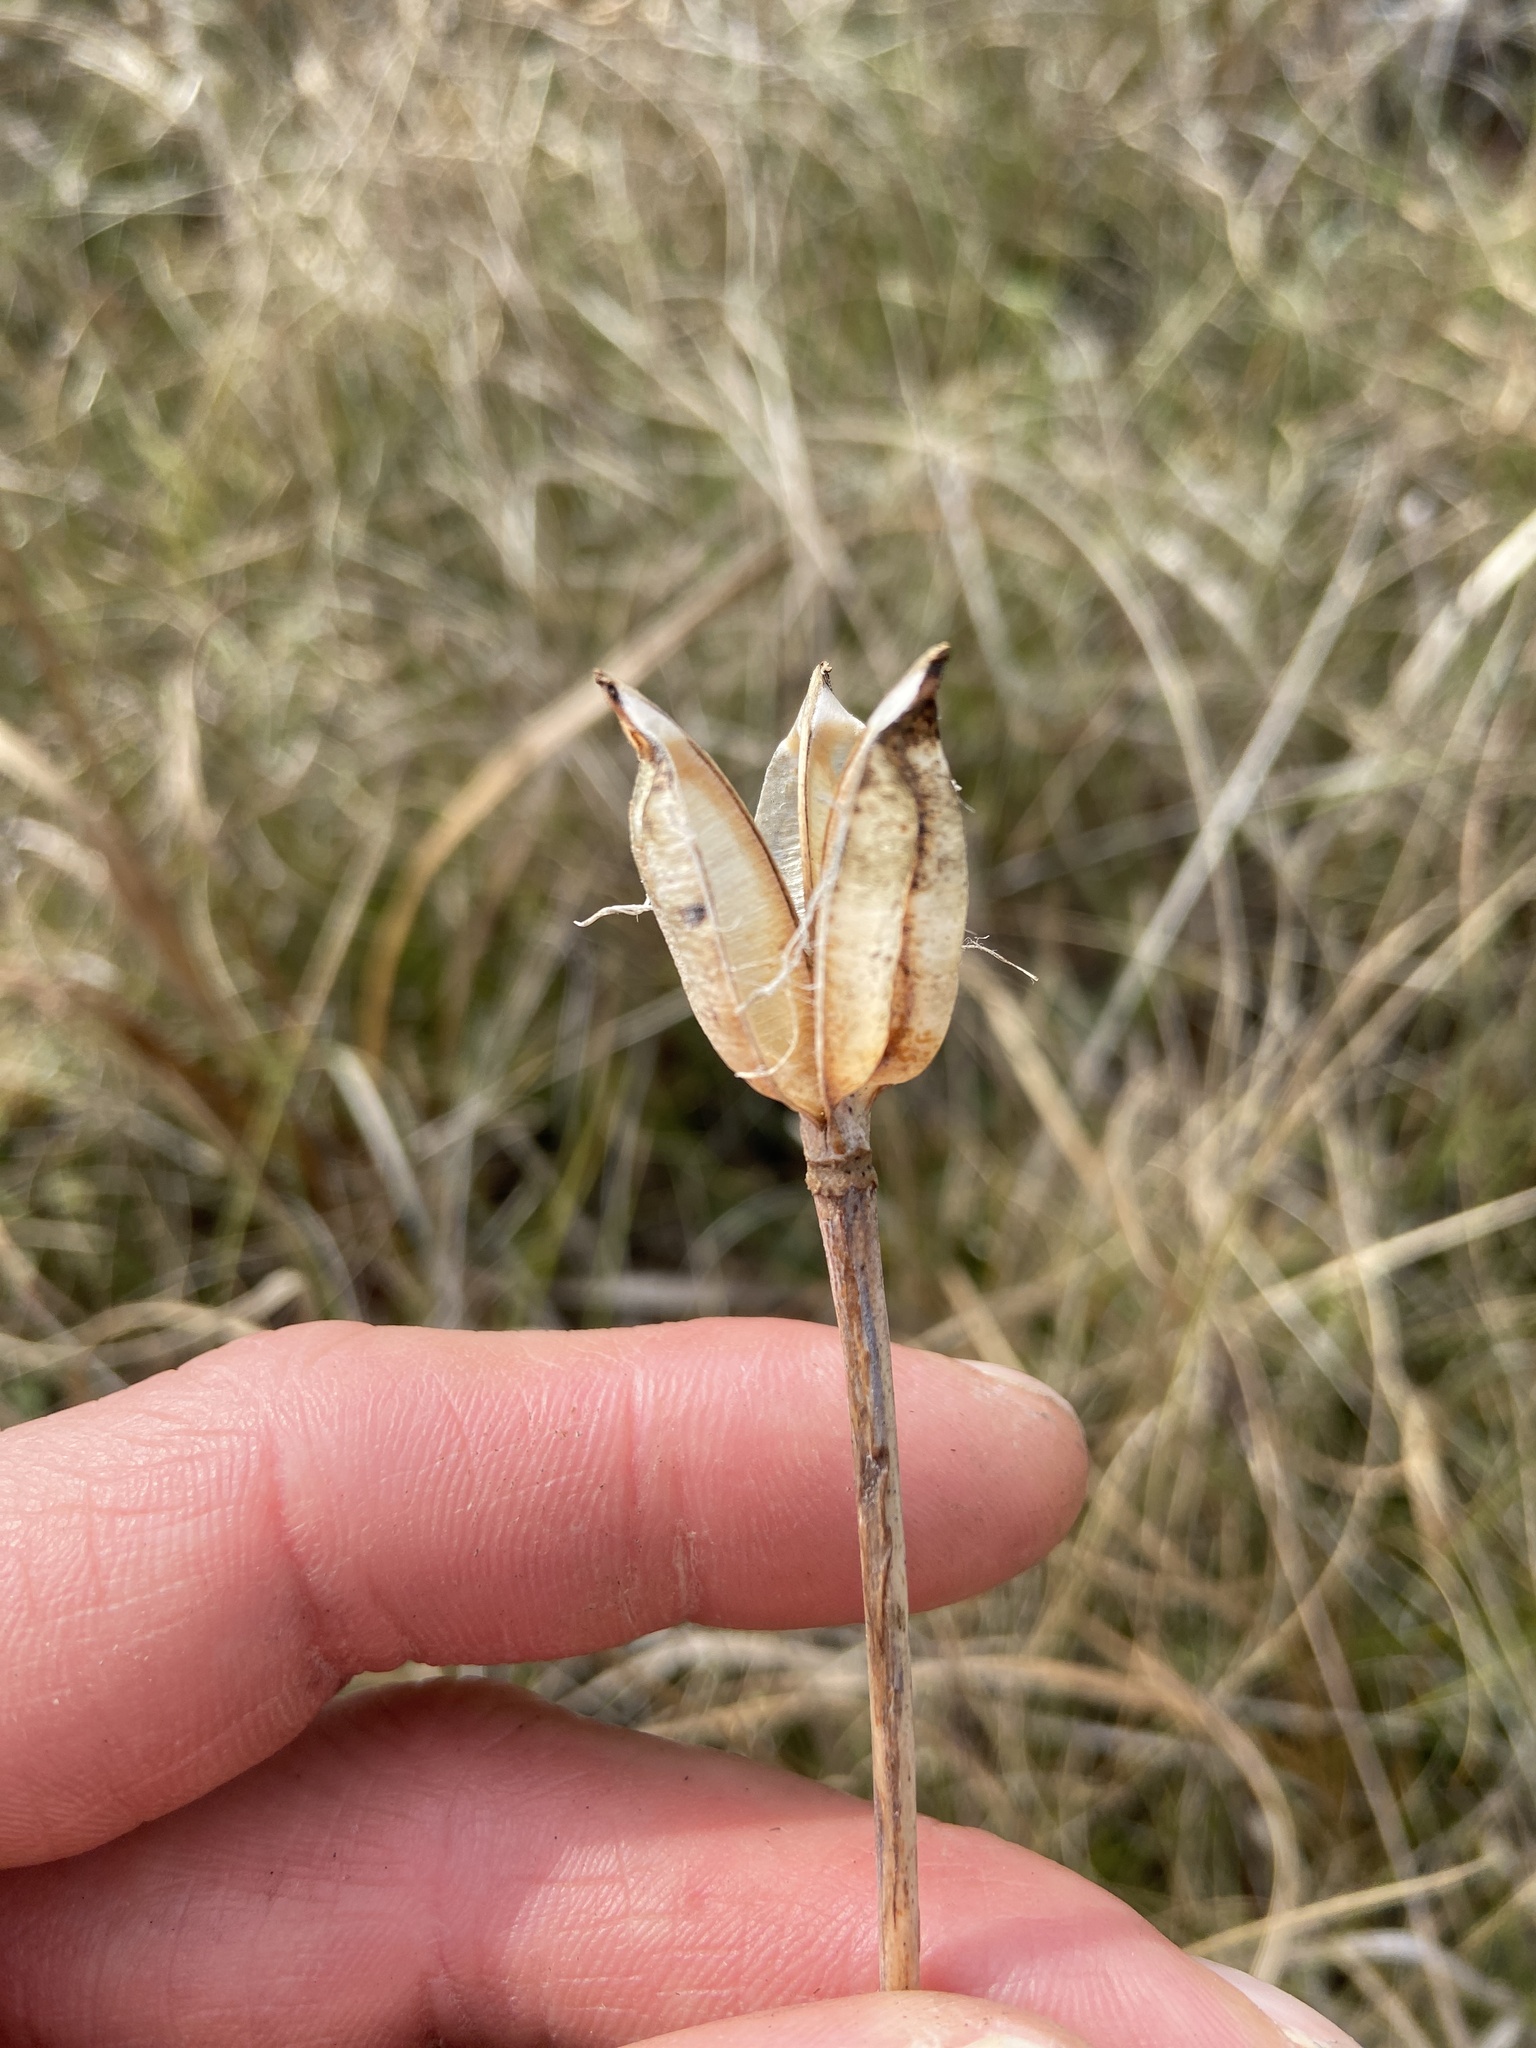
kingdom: Plantae
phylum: Tracheophyta
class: Liliopsida
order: Liliales
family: Liliaceae
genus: Lilium
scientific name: Lilium catesbaei
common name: Catesby's lily
